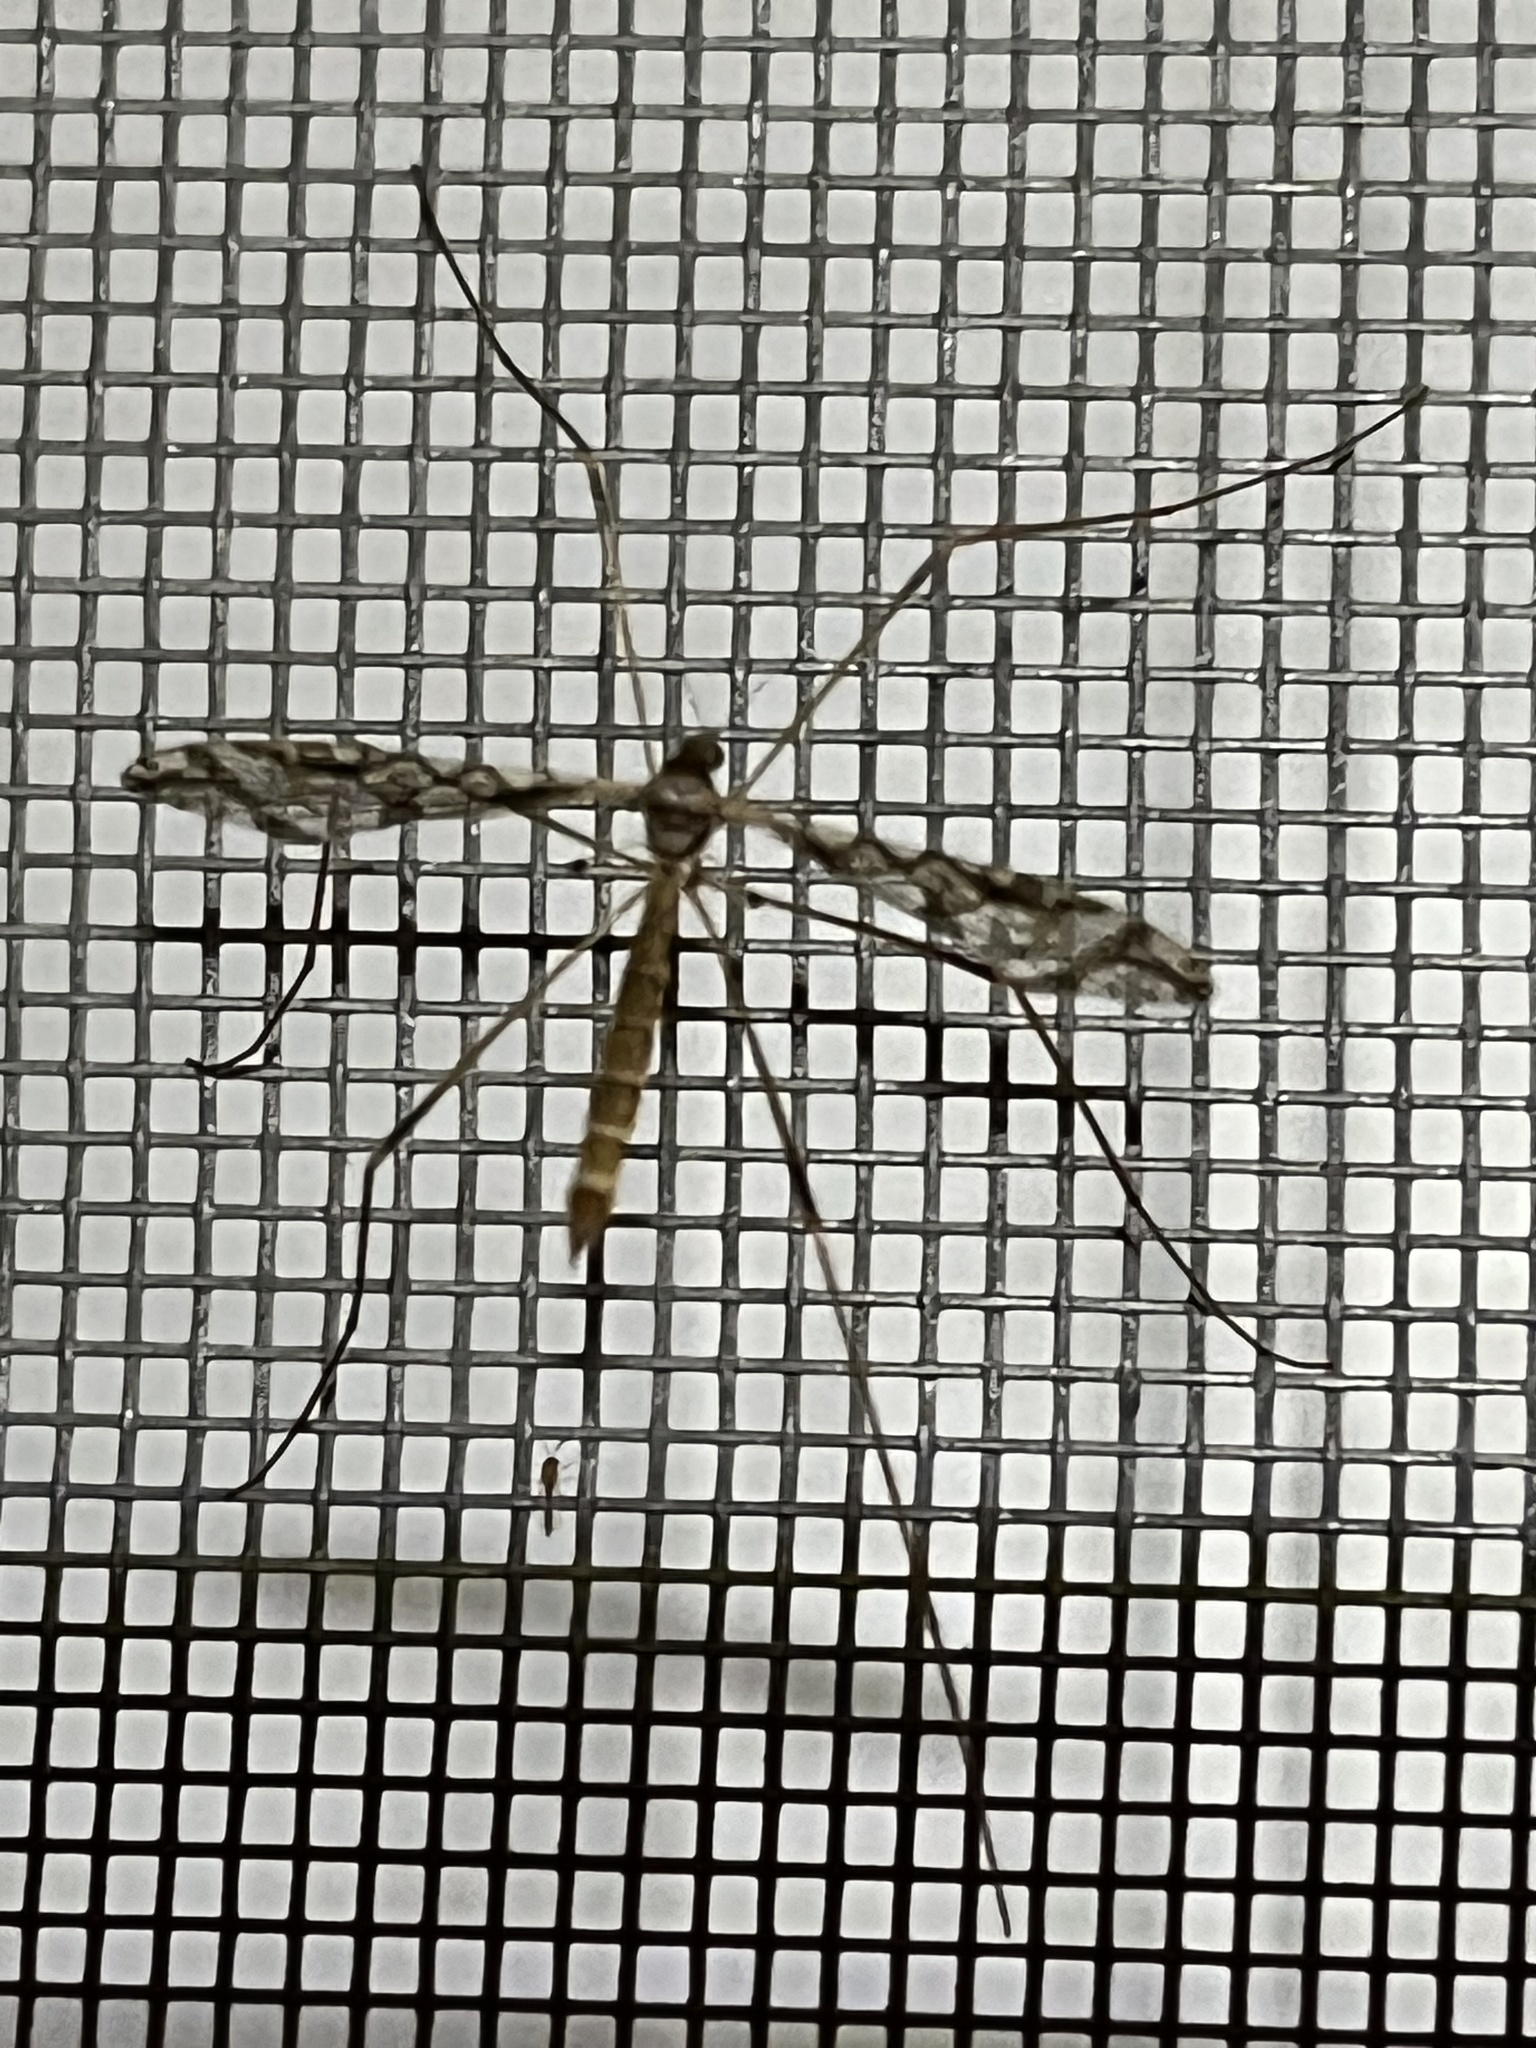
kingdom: Animalia
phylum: Arthropoda
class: Insecta
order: Diptera
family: Limoniidae
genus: Epiphragma
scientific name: Epiphragma solatrix
